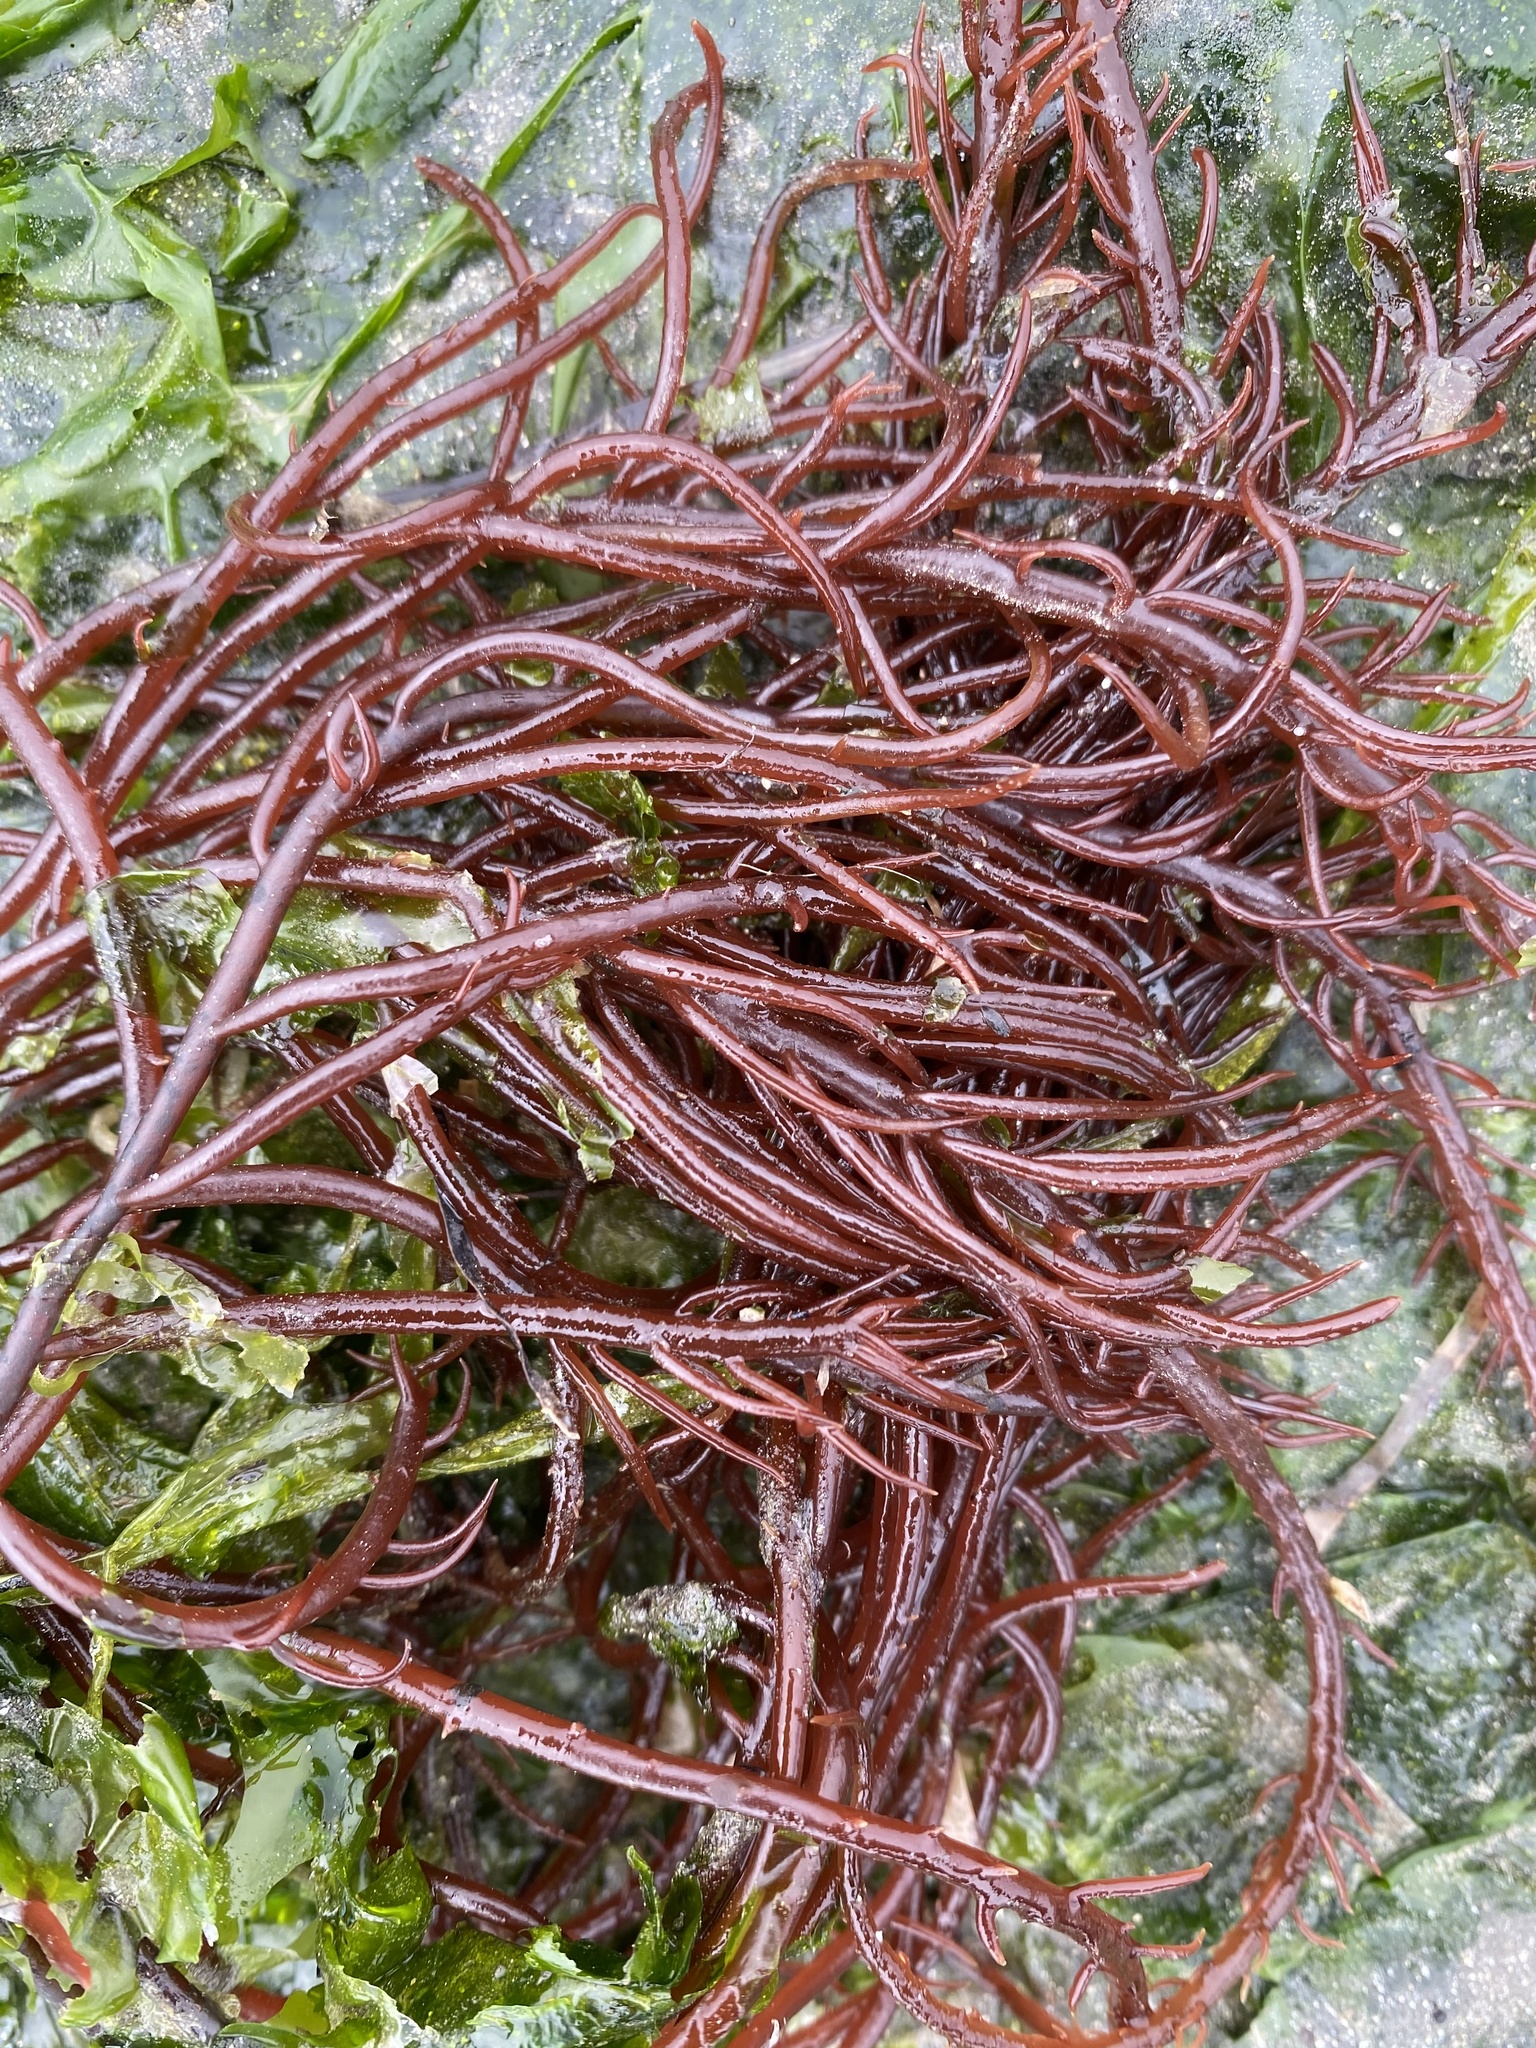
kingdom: Plantae
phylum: Rhodophyta
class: Florideophyceae
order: Gigartinales
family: Solieriaceae
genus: Sarcodiotheca
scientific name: Sarcodiotheca gaudichaudii
